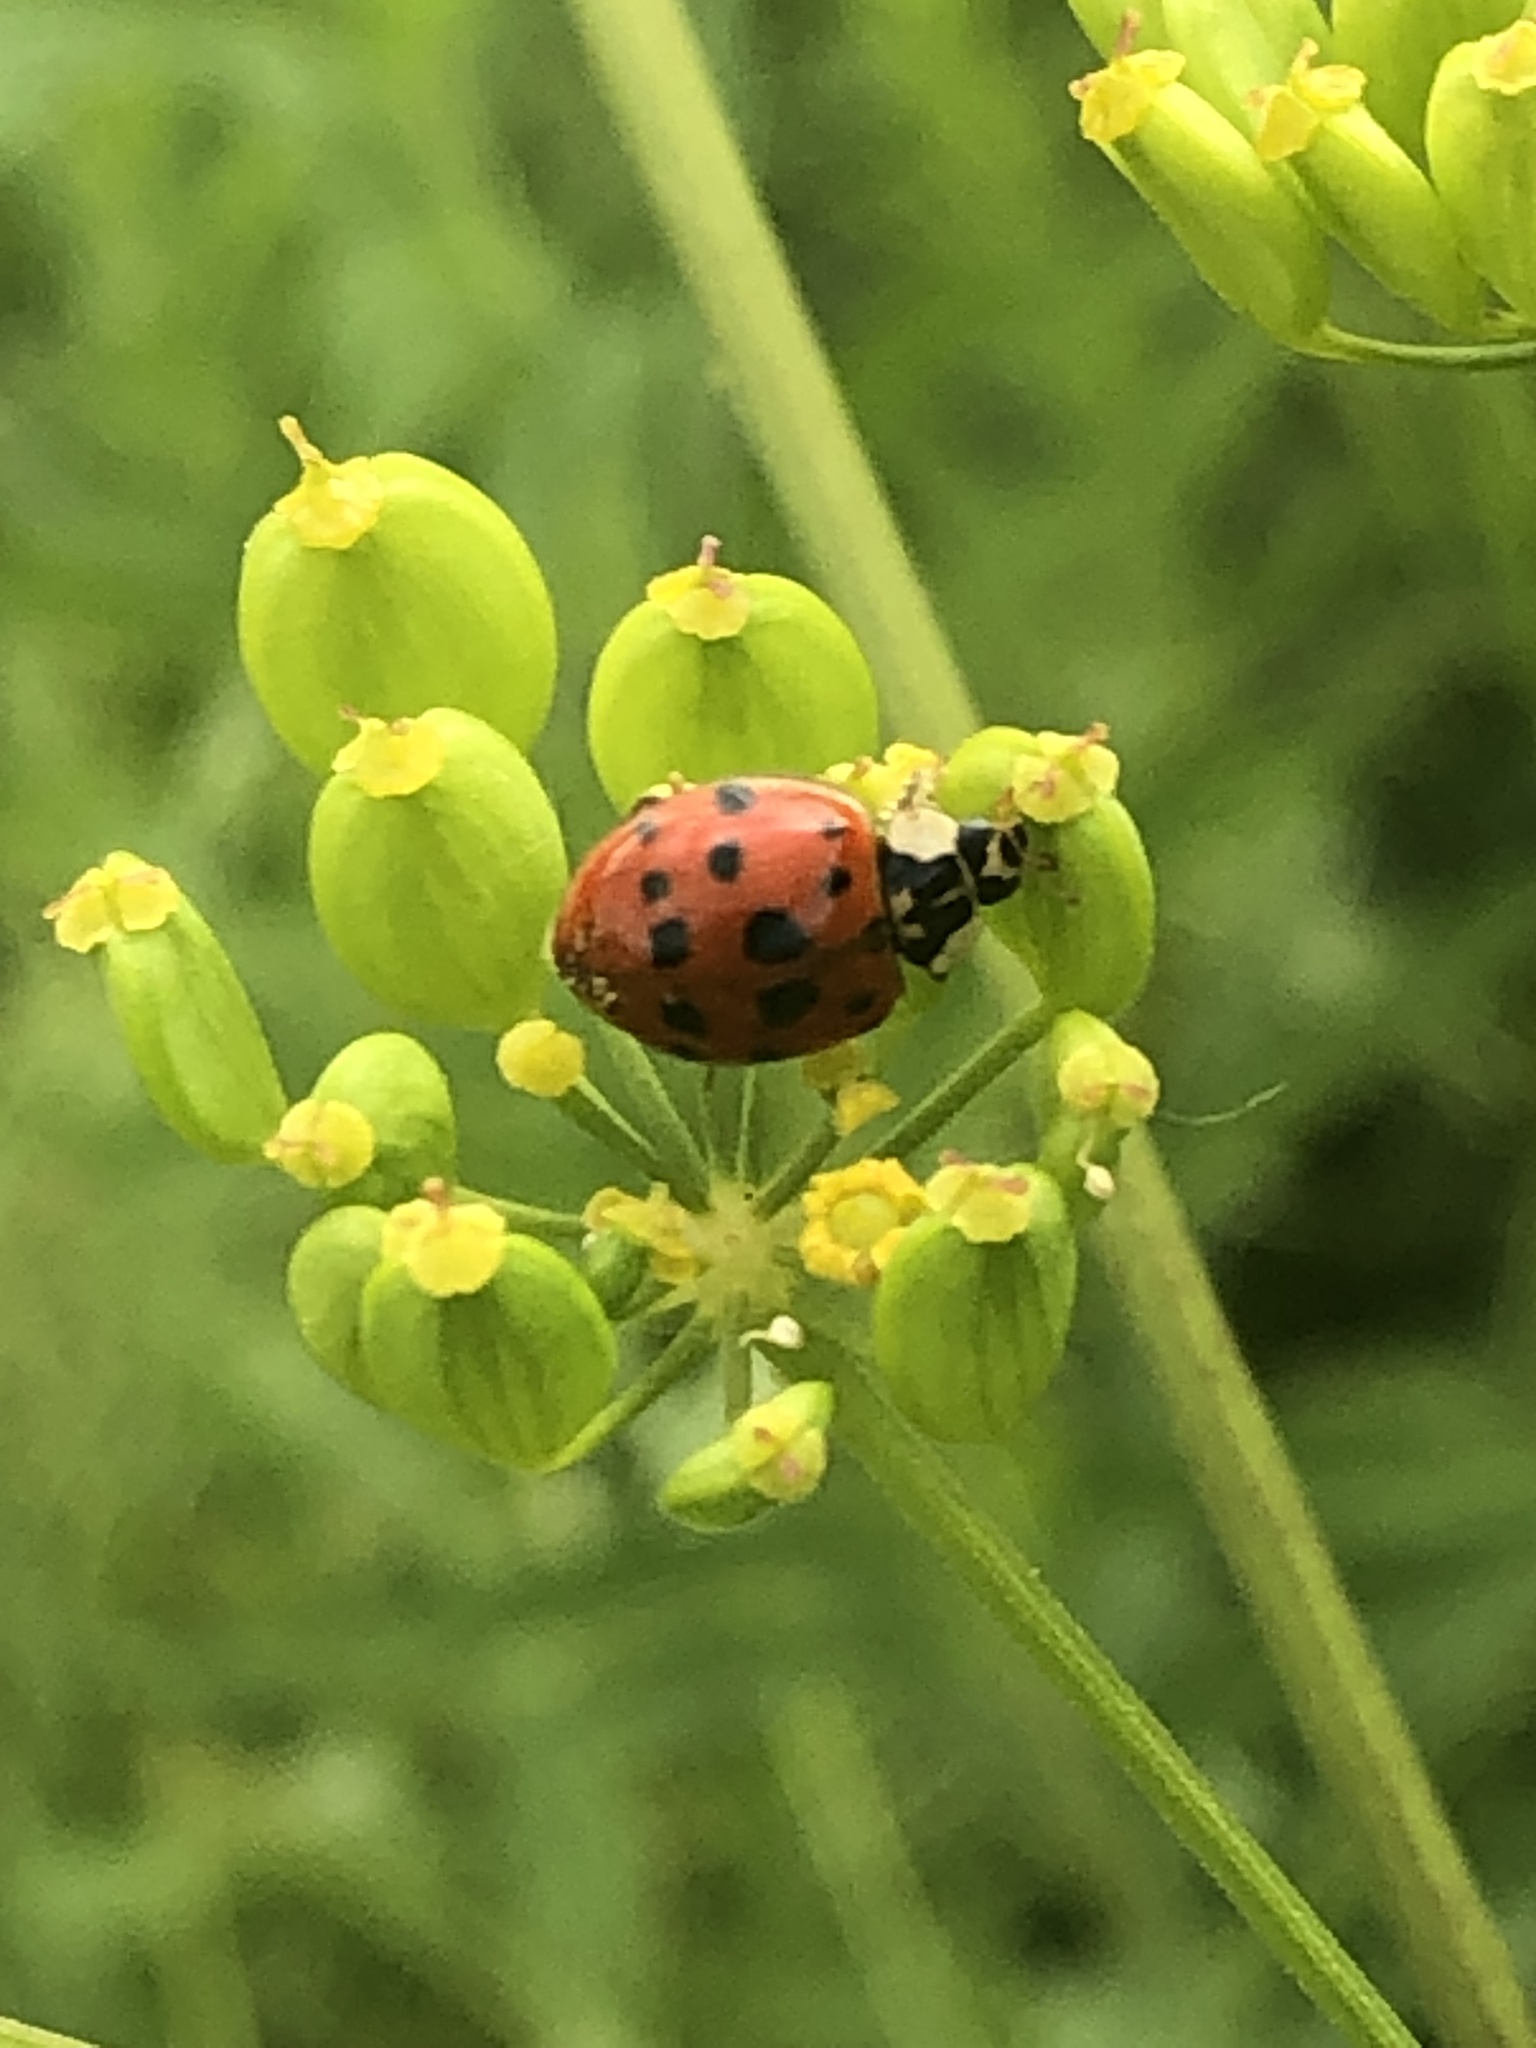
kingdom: Animalia
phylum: Arthropoda
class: Insecta
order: Coleoptera
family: Coccinellidae
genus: Harmonia
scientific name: Harmonia axyridis
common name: Harlequin ladybird
